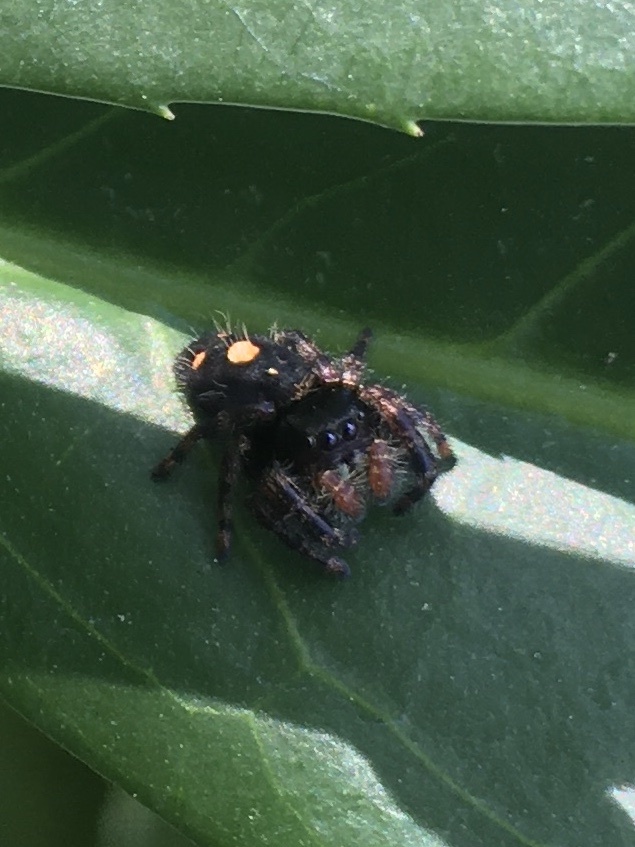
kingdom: Animalia
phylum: Arthropoda
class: Arachnida
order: Araneae
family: Salticidae
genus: Phidippus
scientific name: Phidippus audax
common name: Bold jumper
